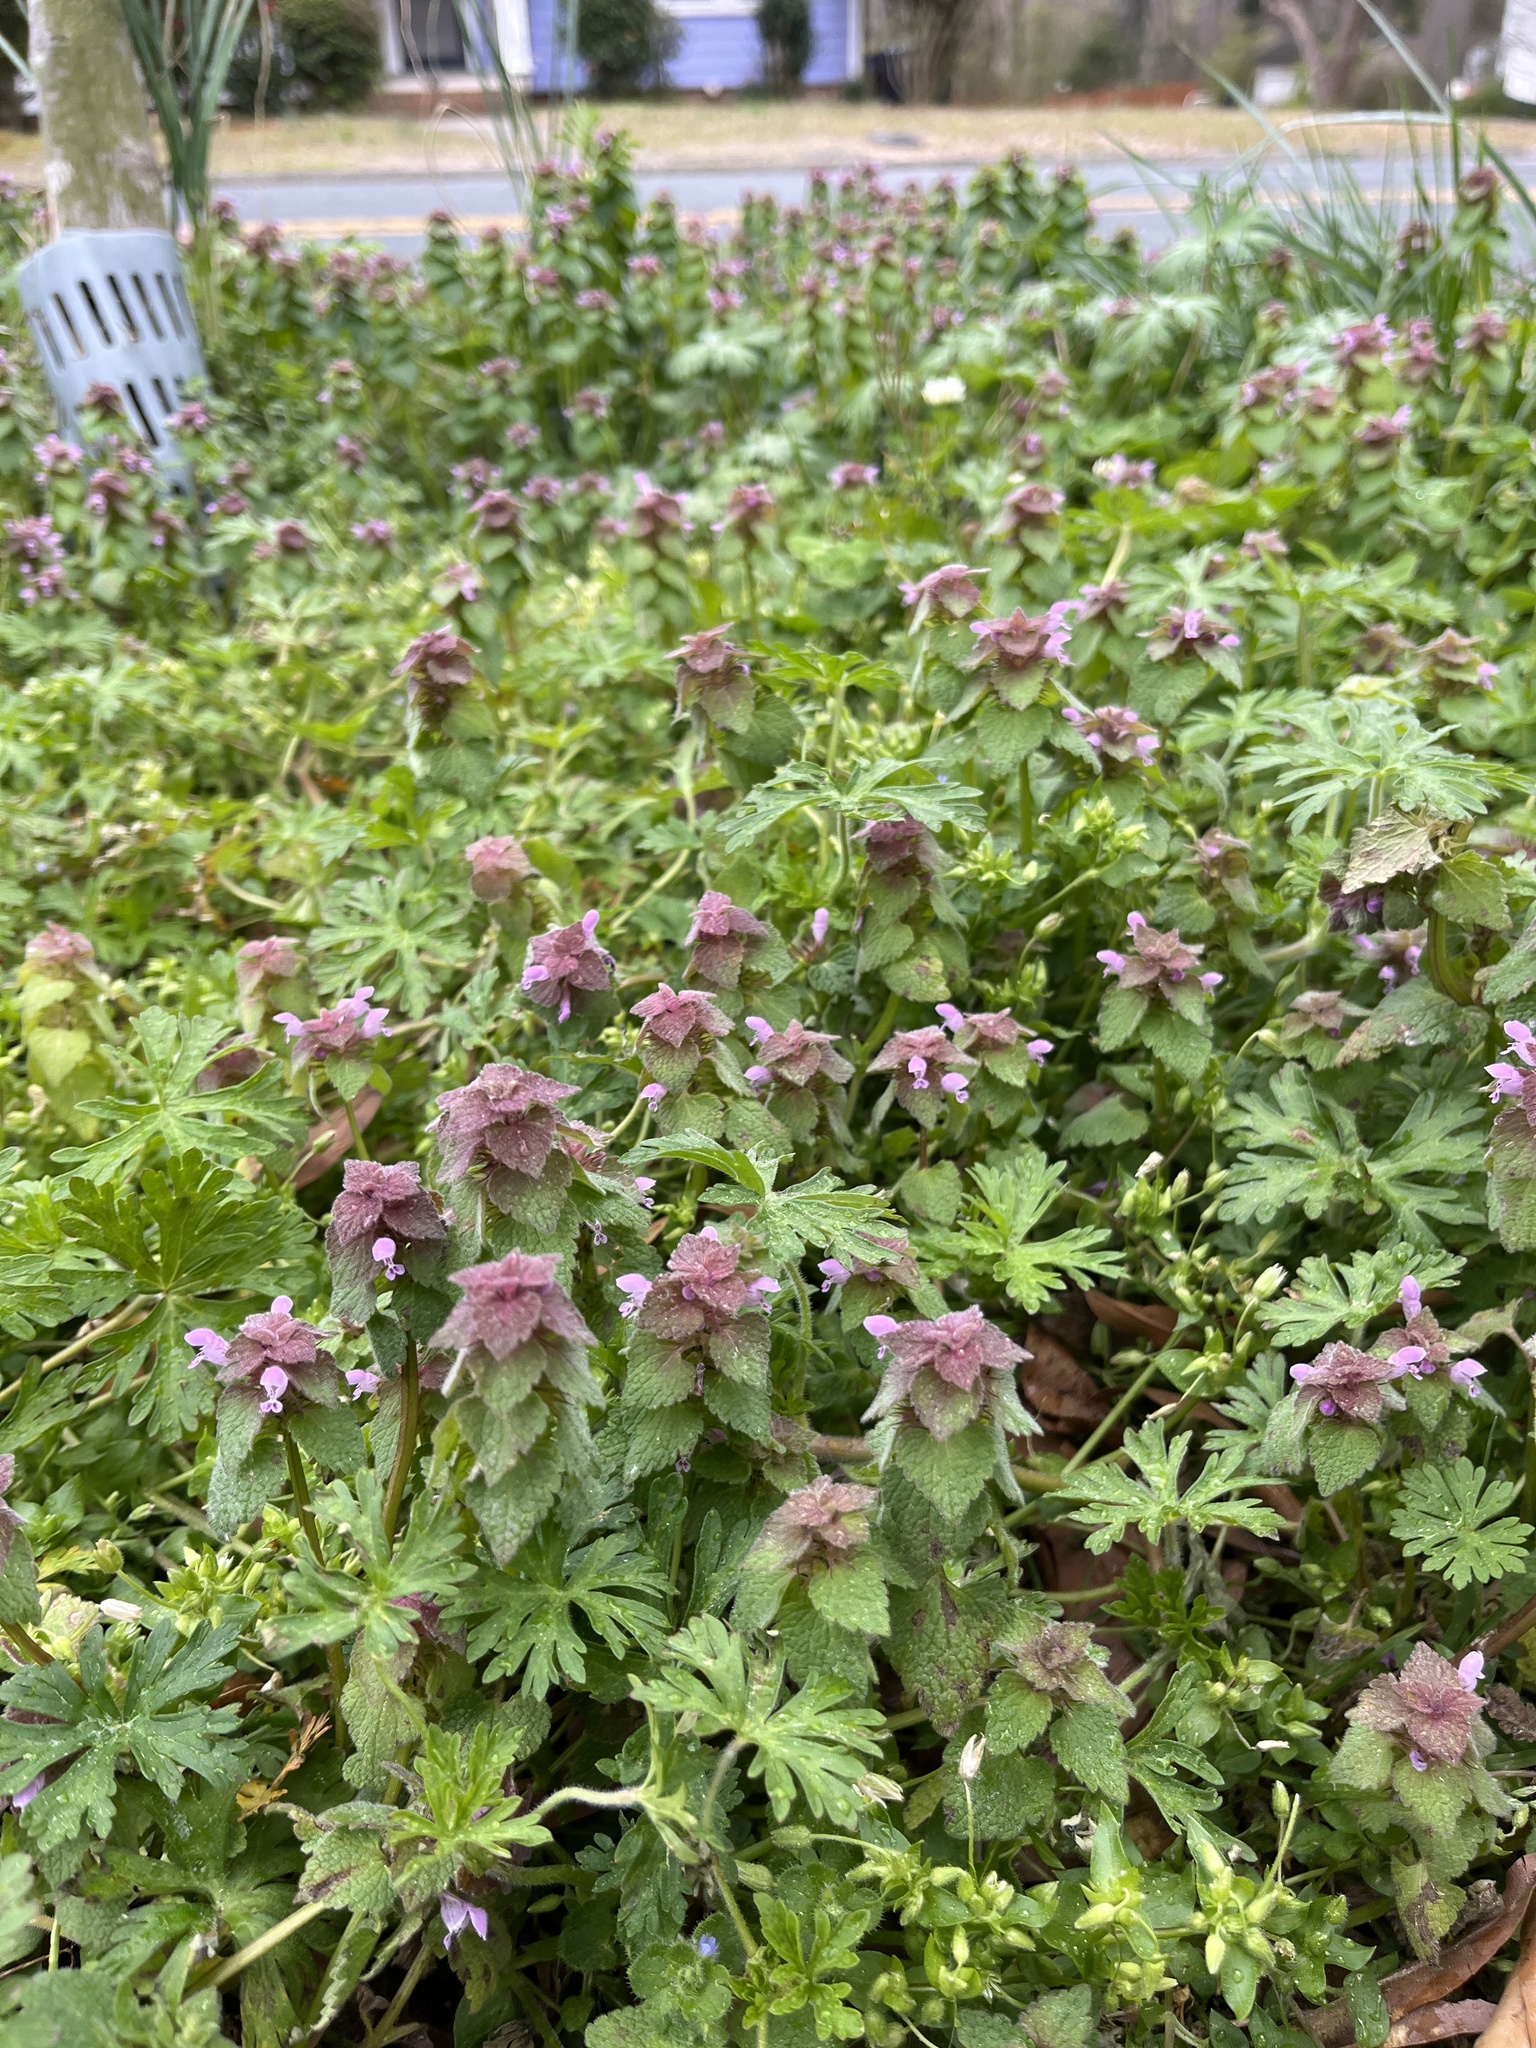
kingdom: Plantae
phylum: Tracheophyta
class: Magnoliopsida
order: Lamiales
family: Lamiaceae
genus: Lamium
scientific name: Lamium purpureum
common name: Red dead-nettle
